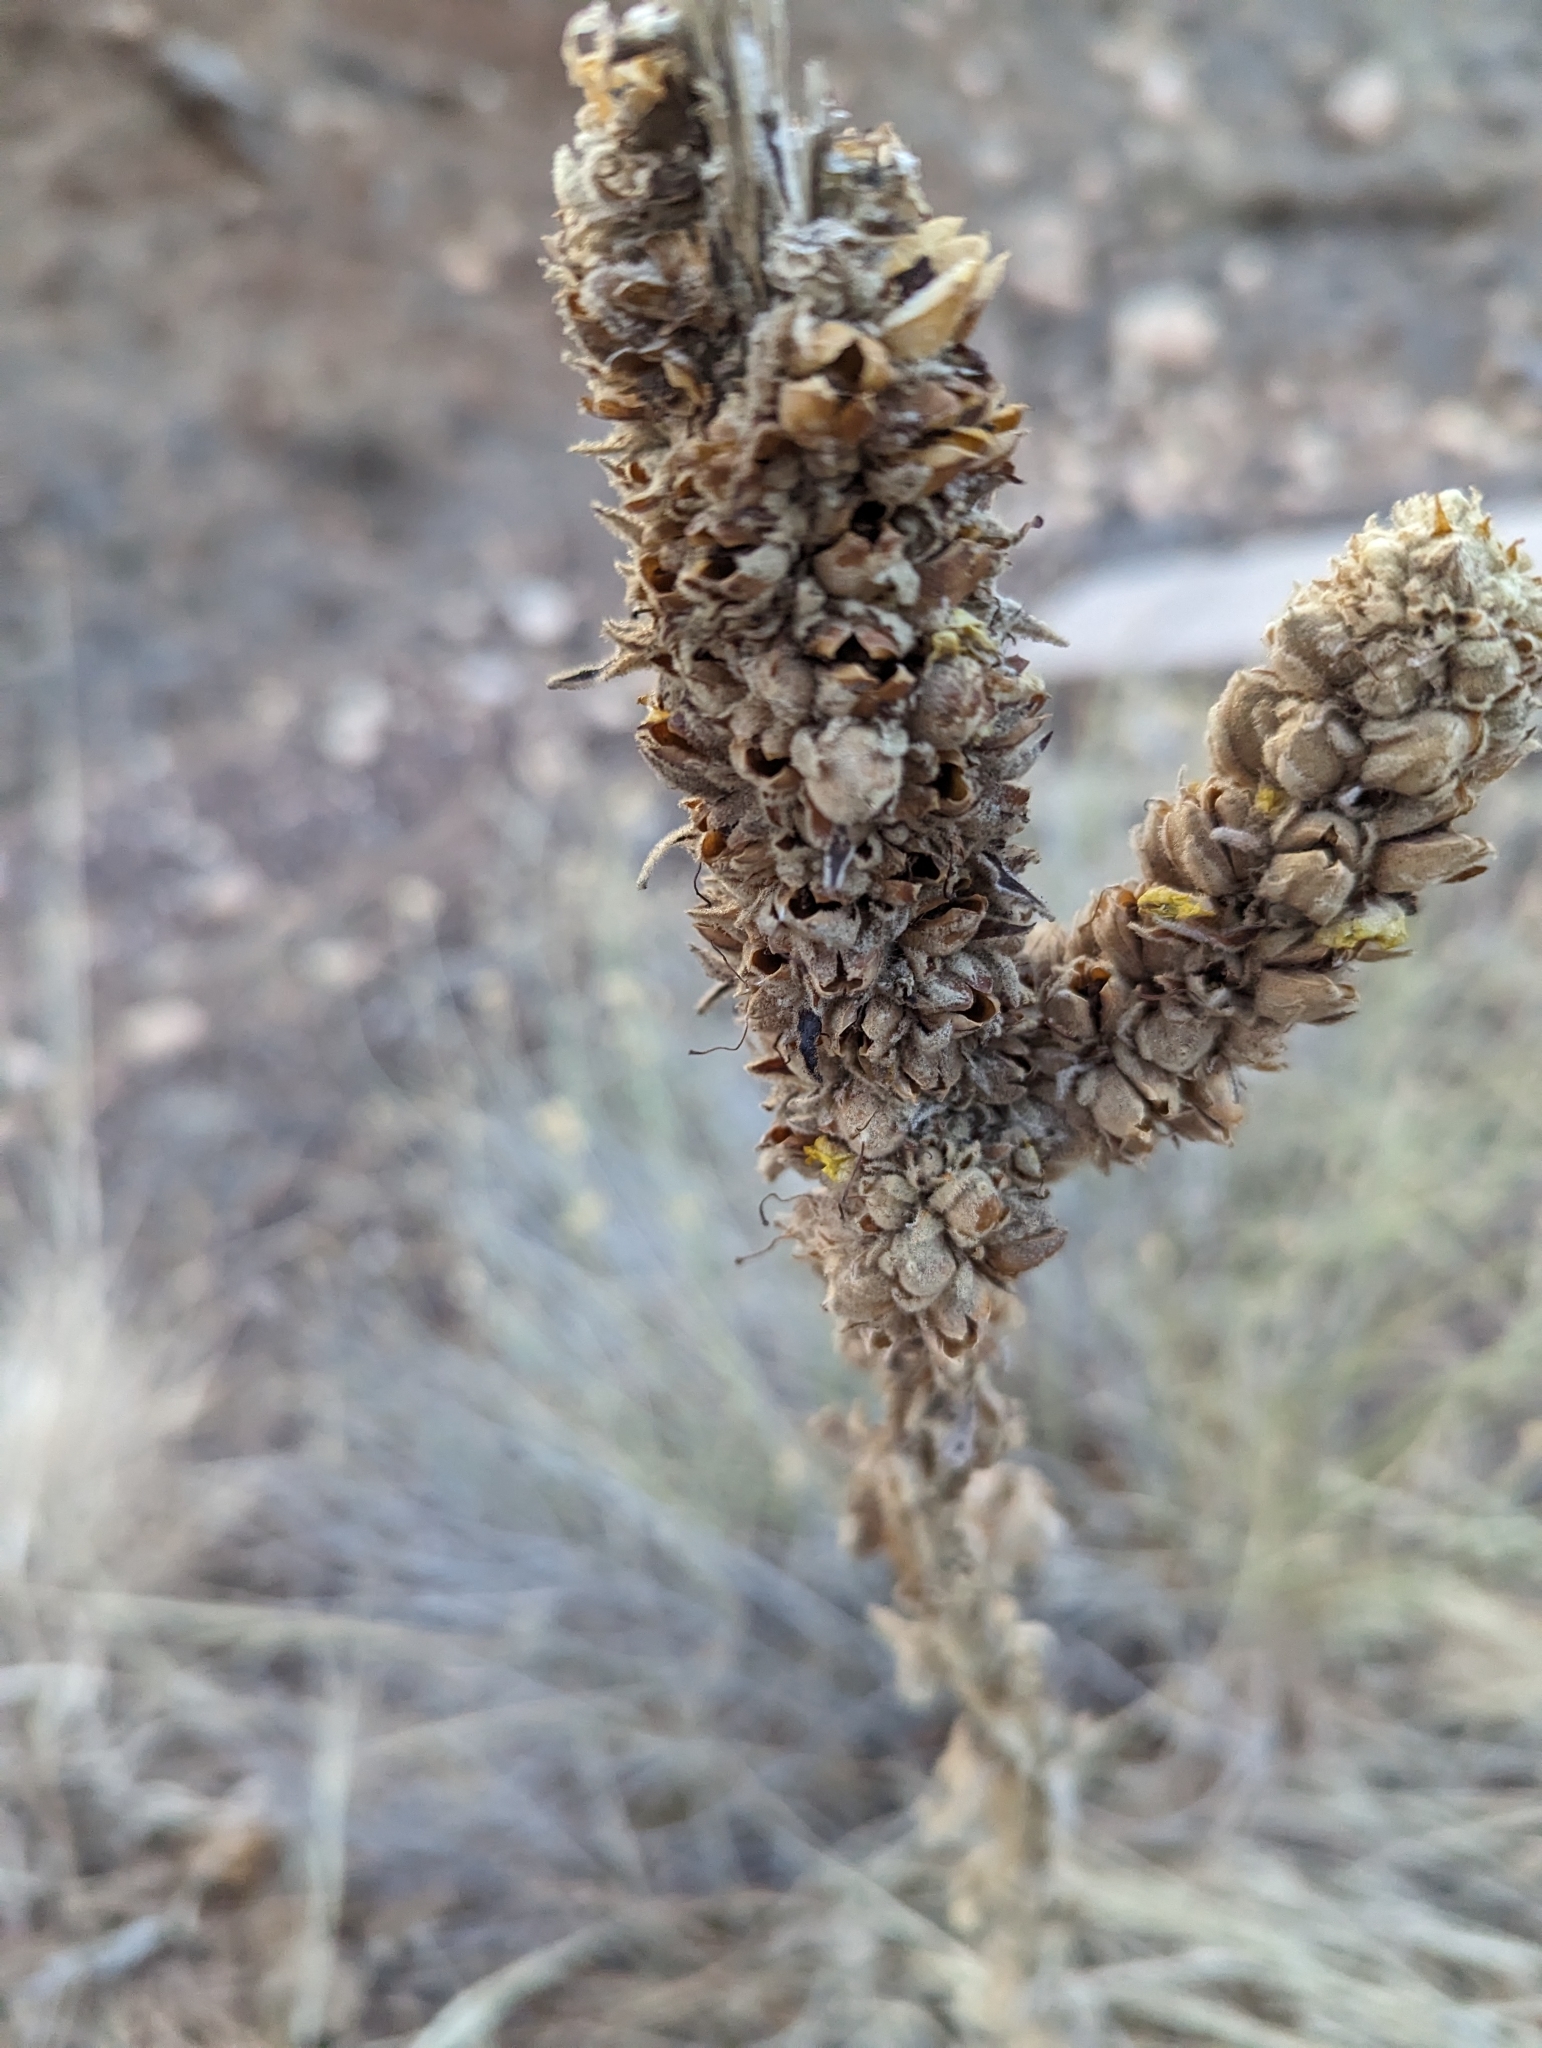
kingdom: Plantae
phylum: Tracheophyta
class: Magnoliopsida
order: Lamiales
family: Scrophulariaceae
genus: Verbascum
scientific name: Verbascum thapsus
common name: Common mullein
